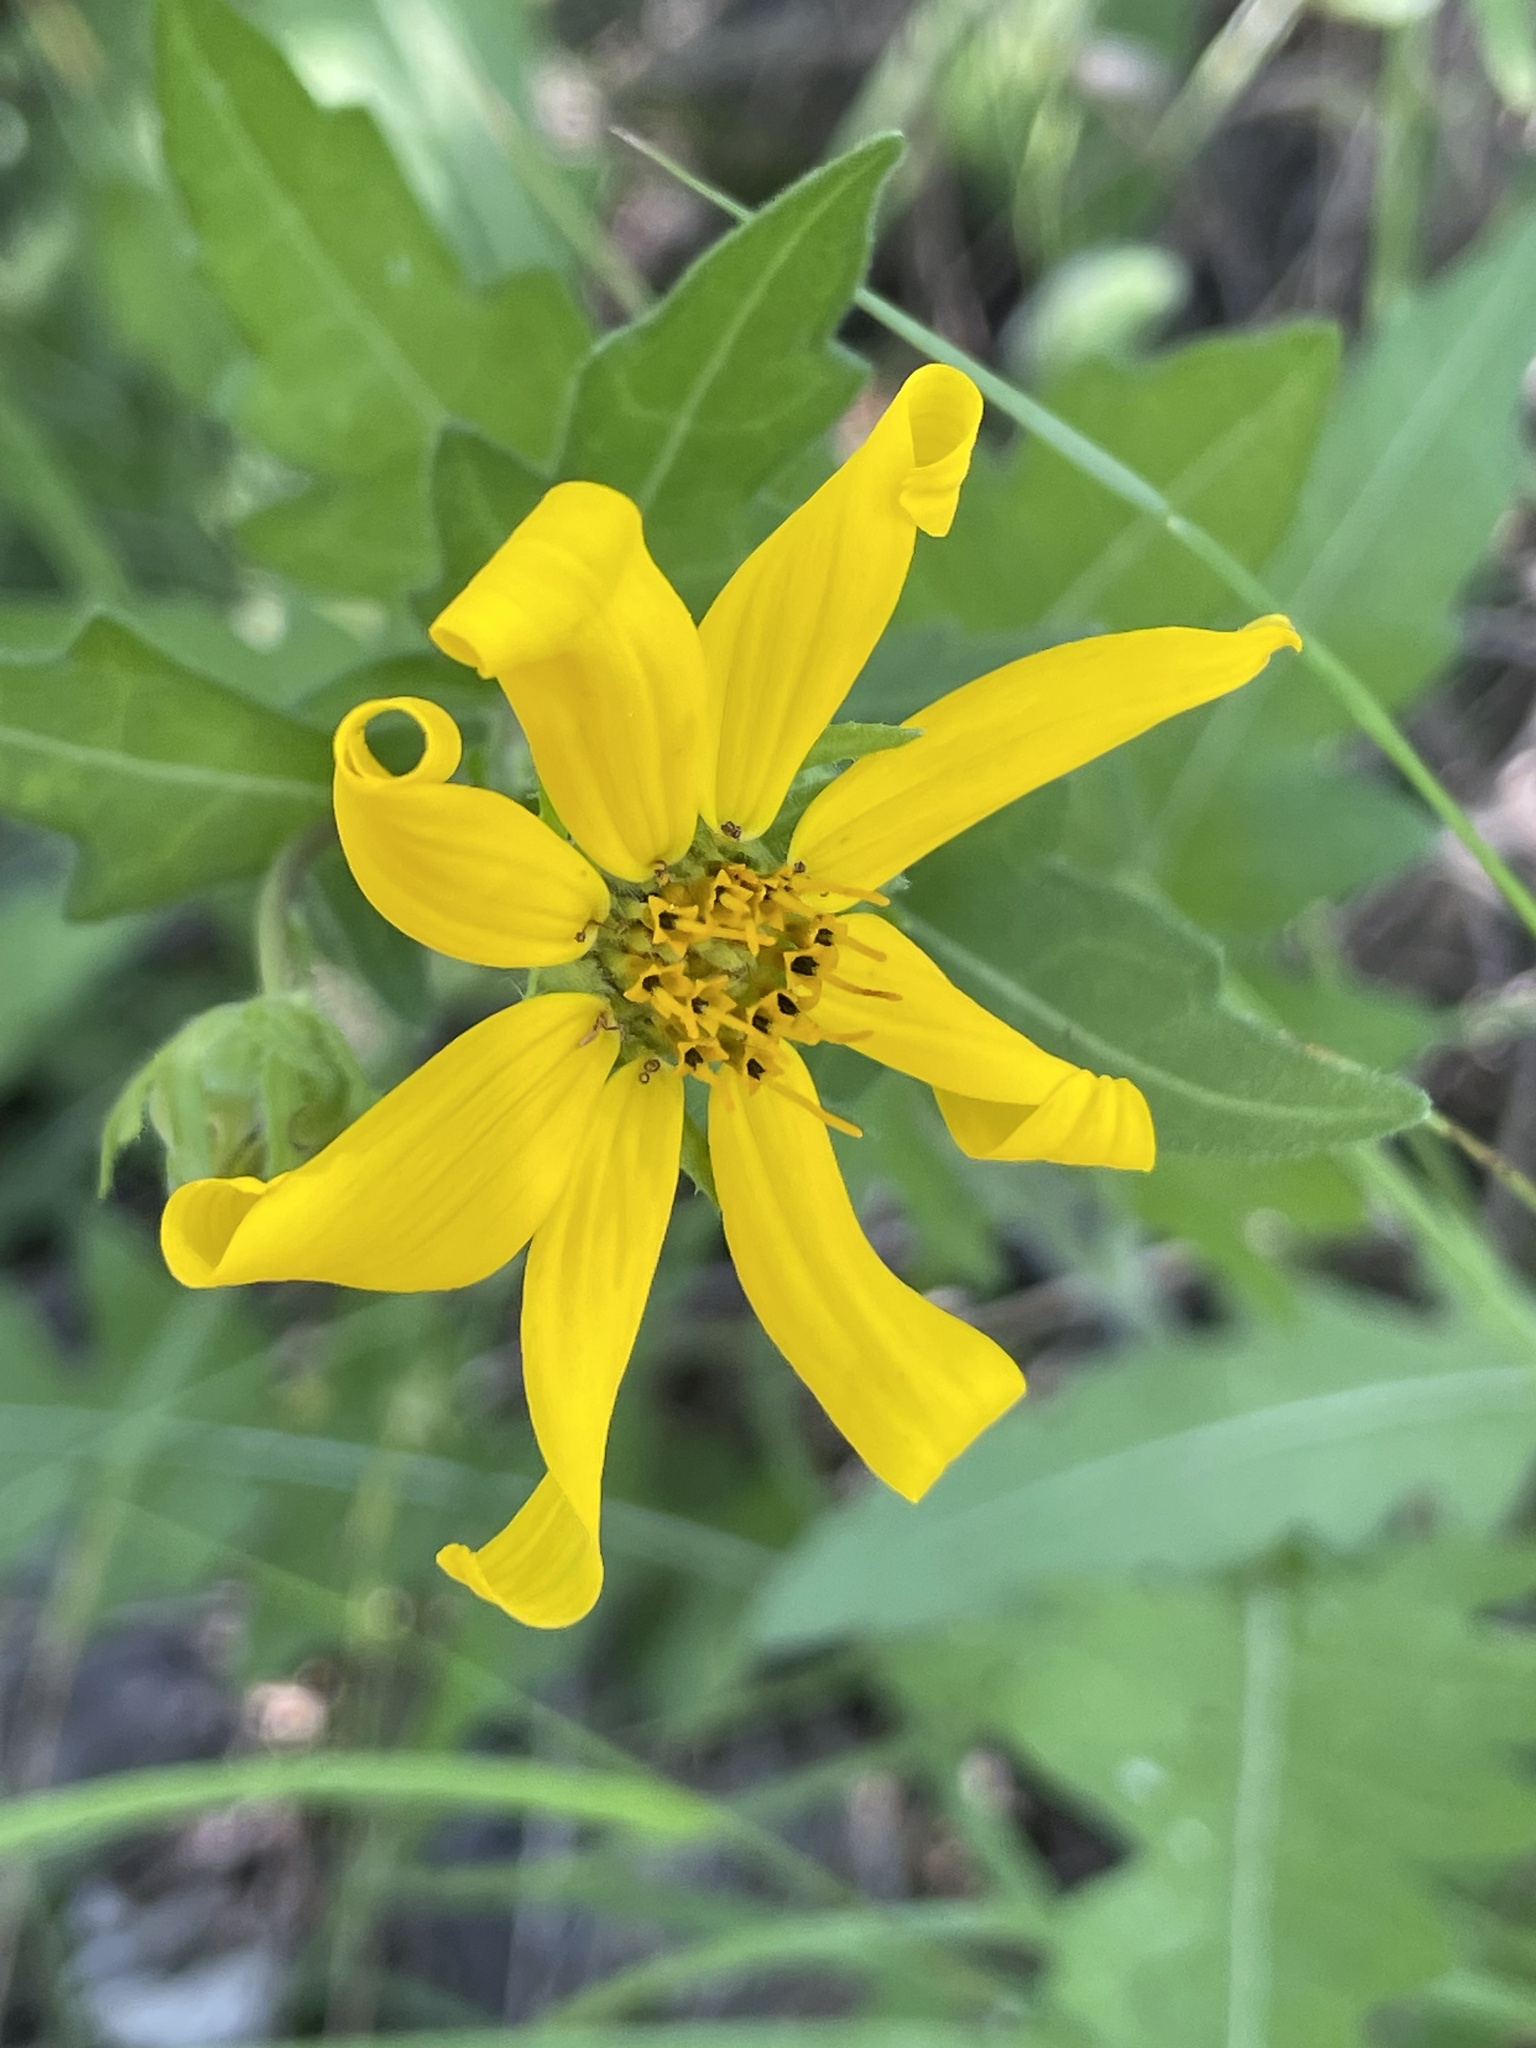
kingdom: Plantae
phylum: Tracheophyta
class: Magnoliopsida
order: Asterales
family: Asteraceae
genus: Engelmannia
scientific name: Engelmannia peristenia
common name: Engelmann's daisy
